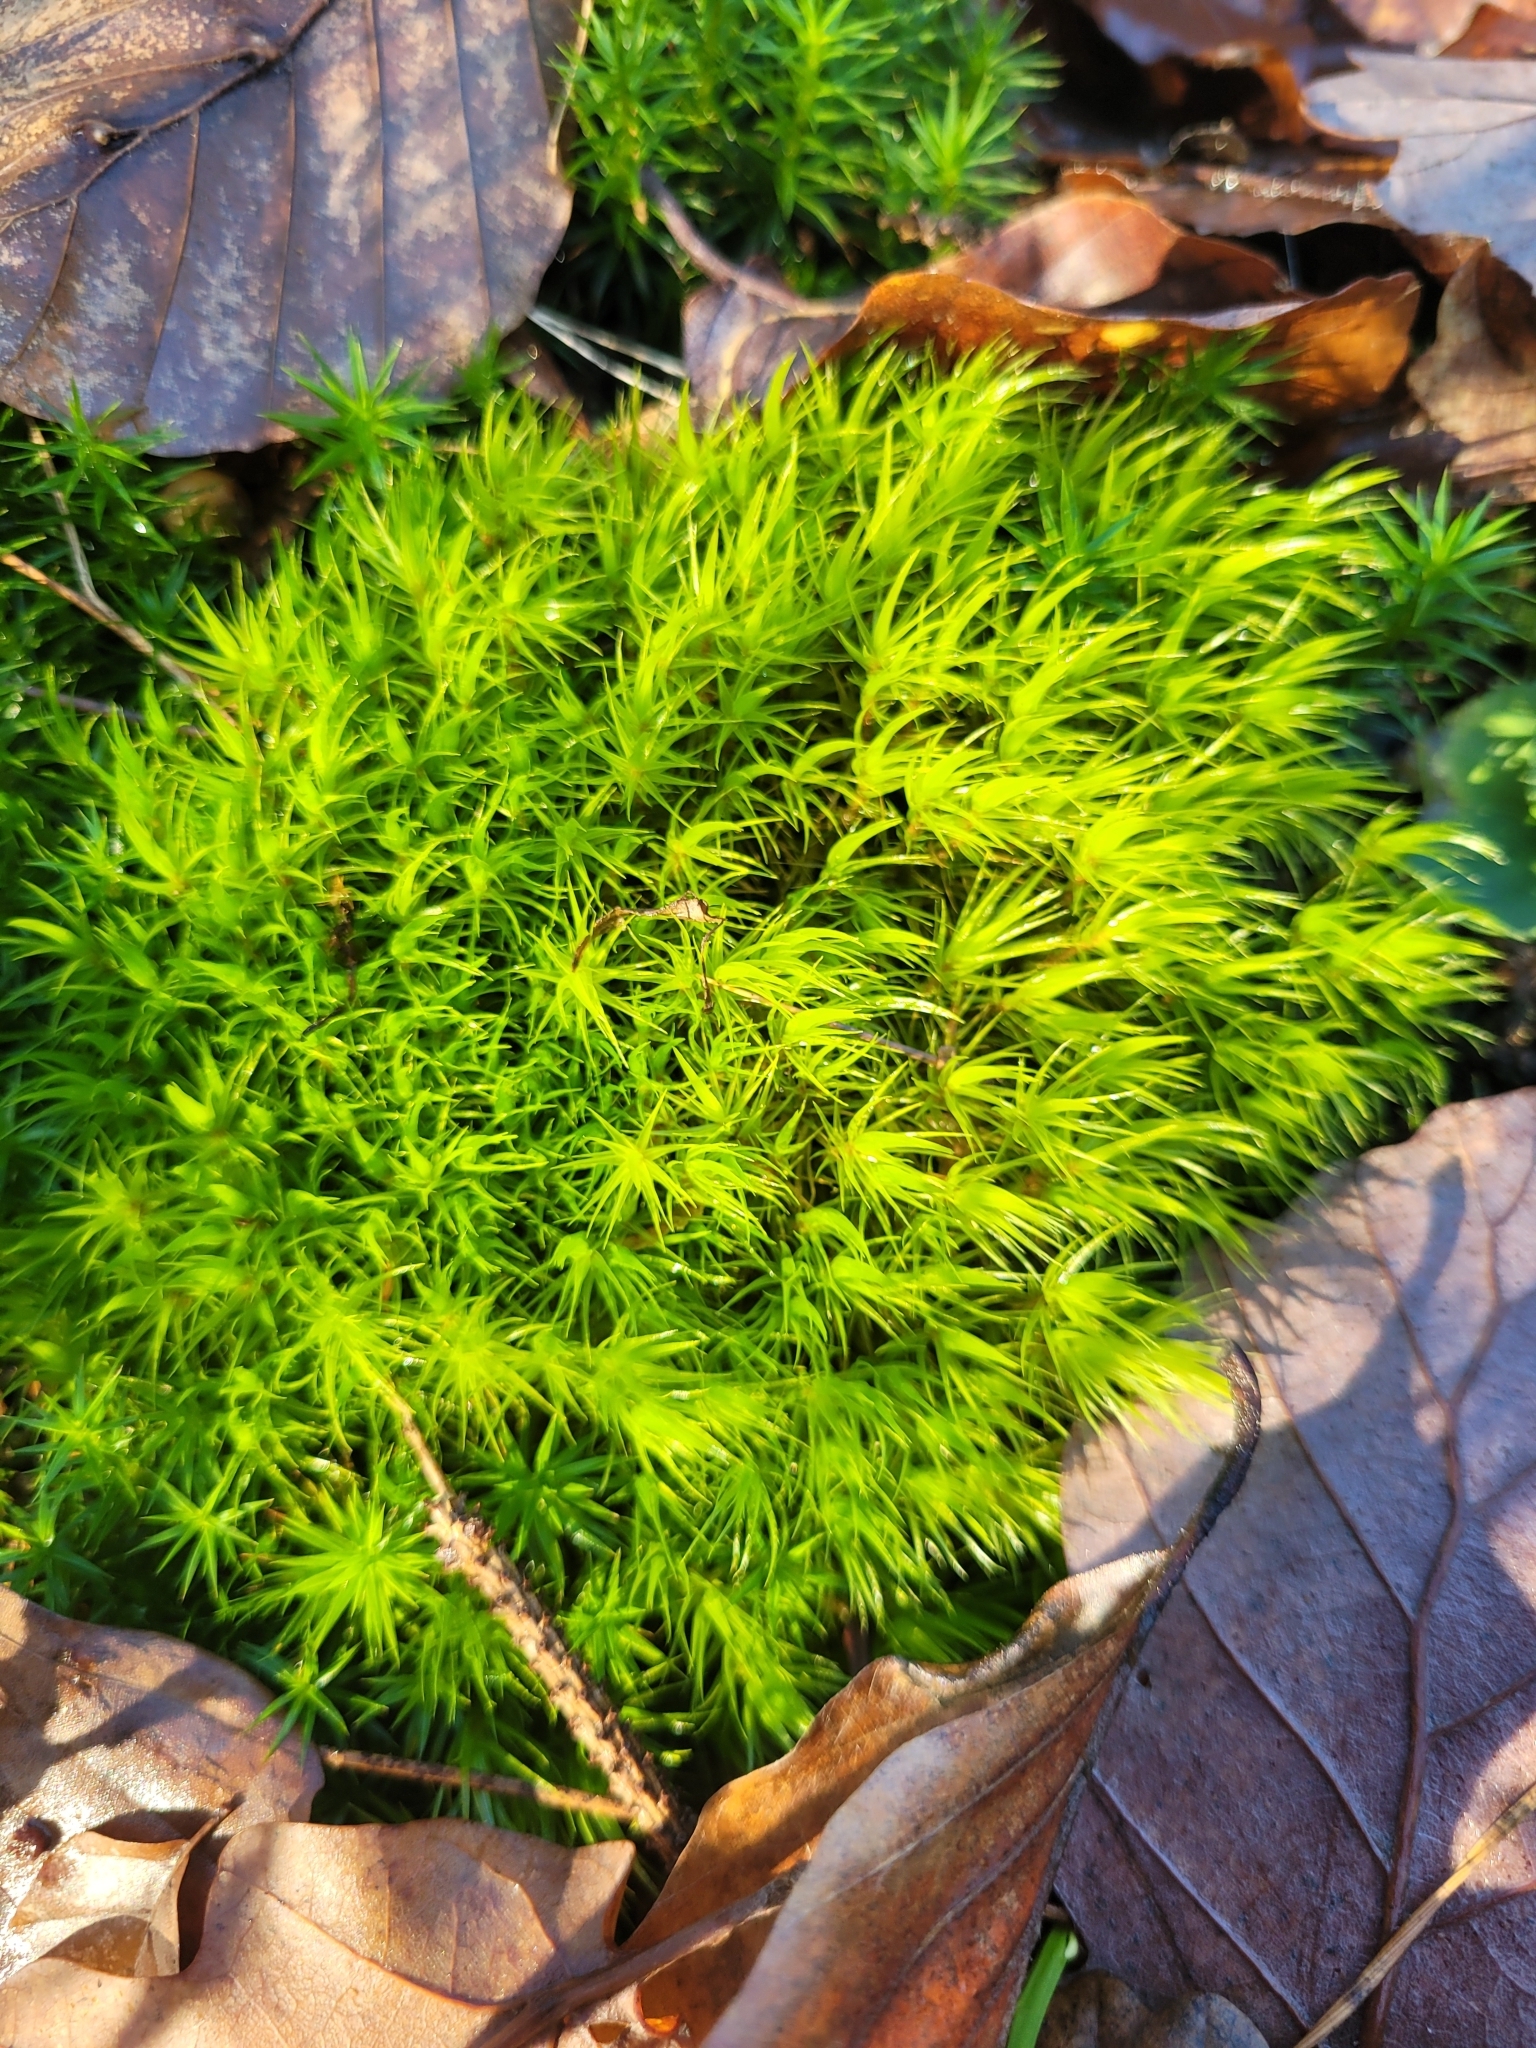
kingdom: Plantae
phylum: Bryophyta
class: Bryopsida
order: Dicranales
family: Dicranaceae
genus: Dicranum
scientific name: Dicranum scoparium
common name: Broom fork-moss
